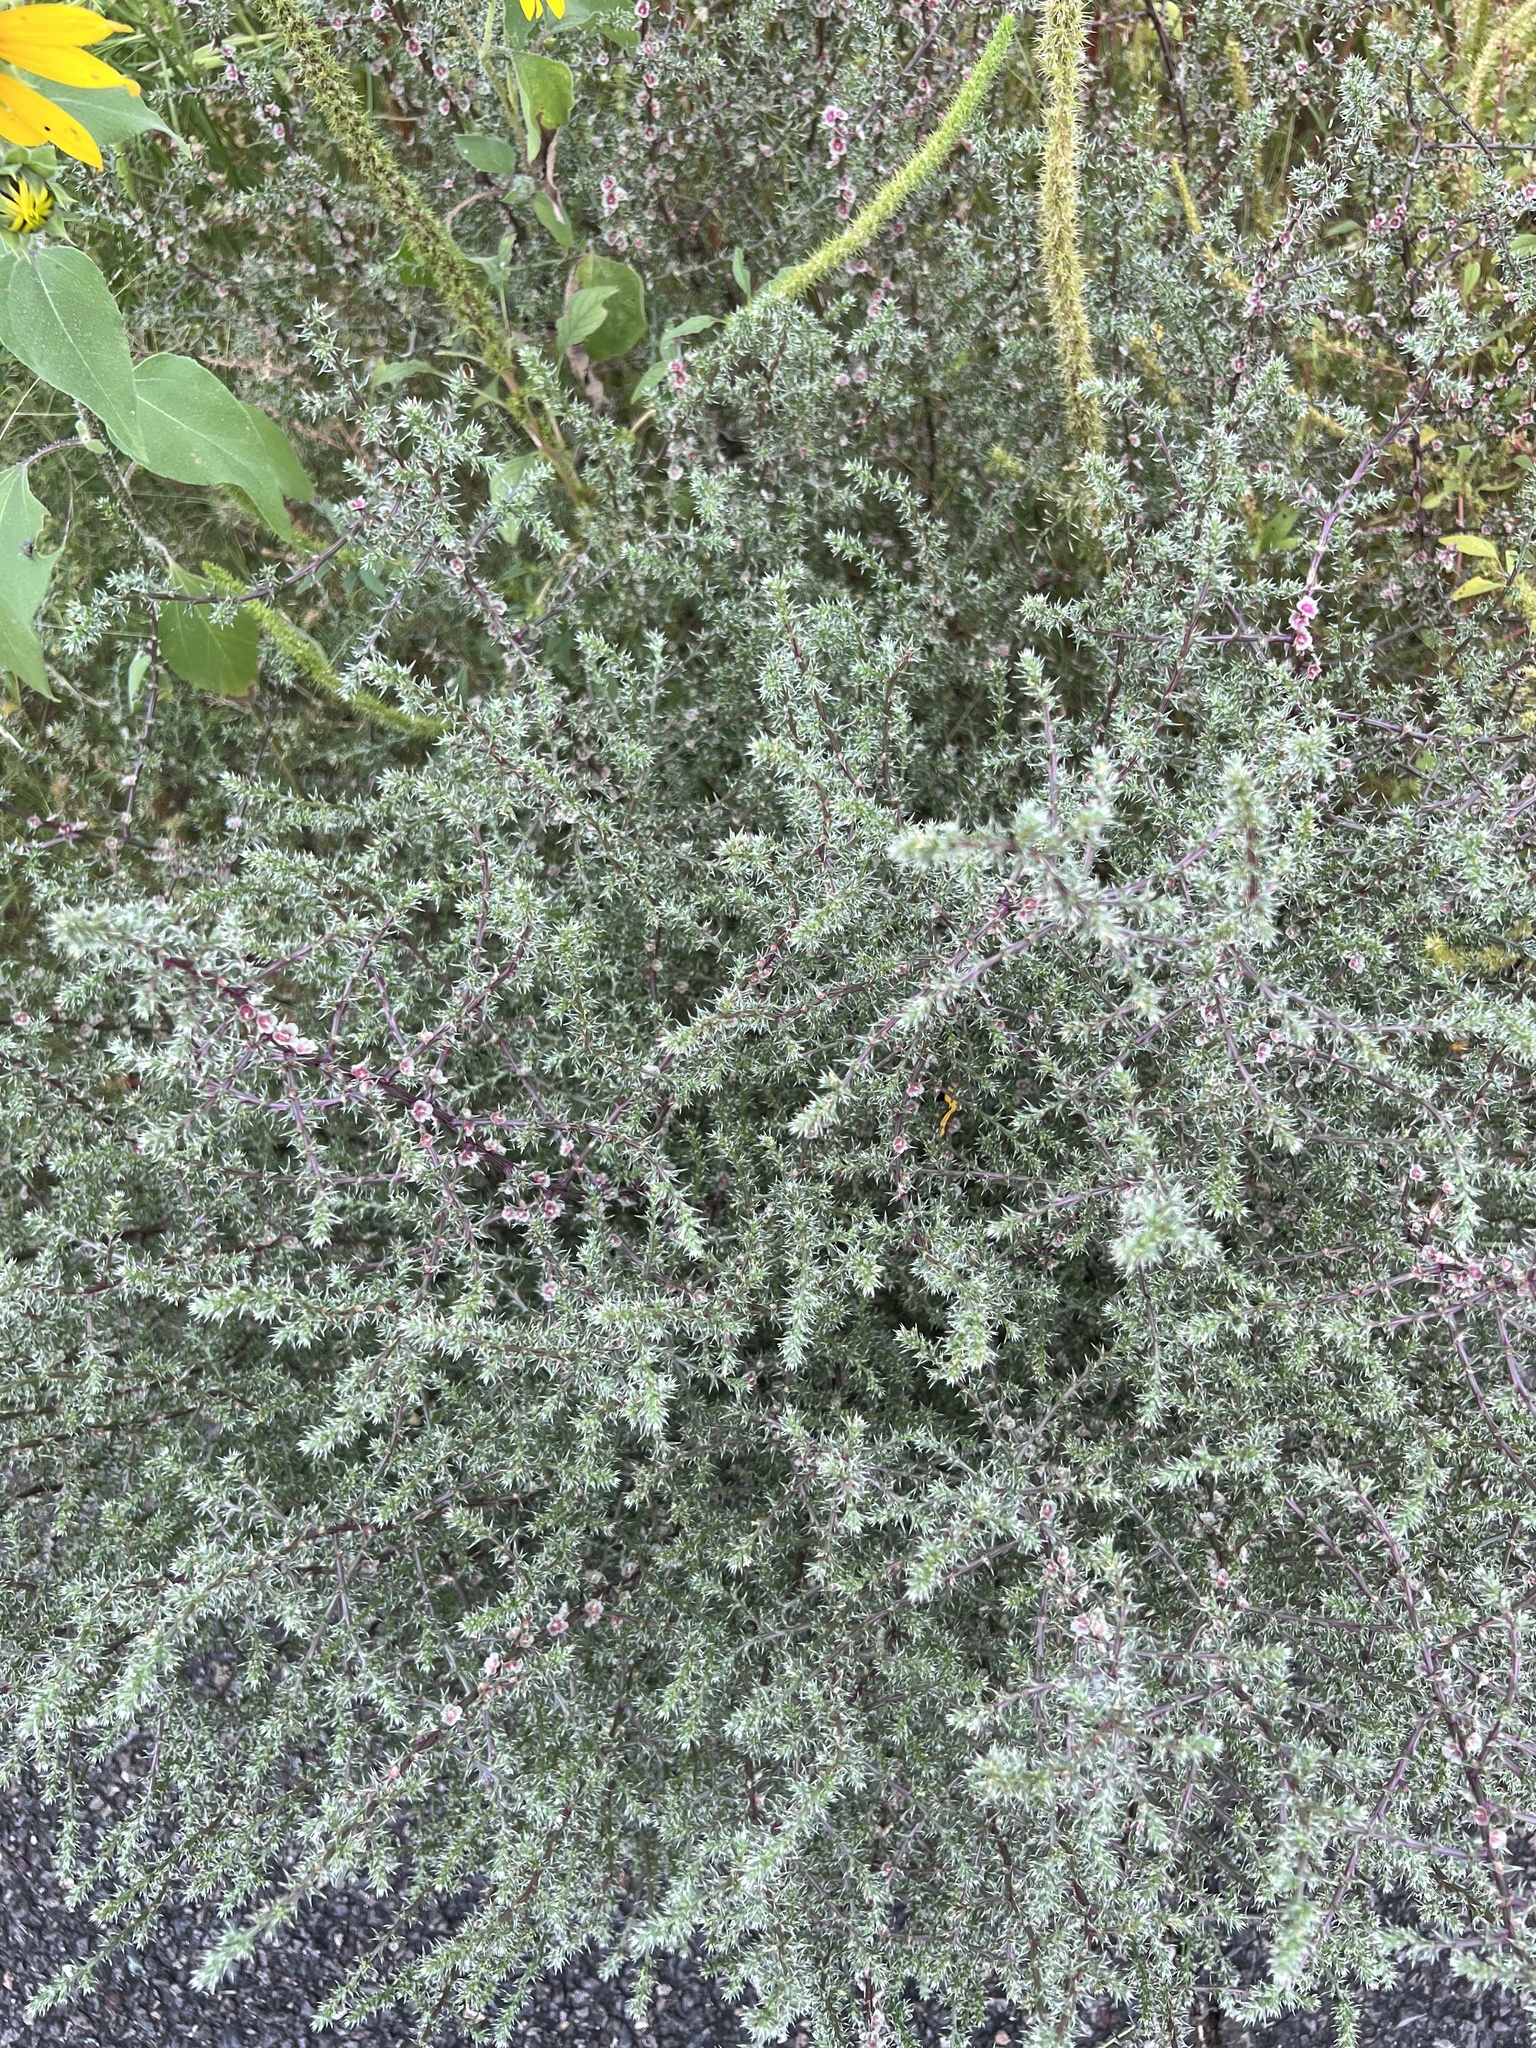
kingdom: Plantae
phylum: Tracheophyta
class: Magnoliopsida
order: Caryophyllales
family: Amaranthaceae
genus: Salsola
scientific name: Salsola tragus
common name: Prickly russian thistle
